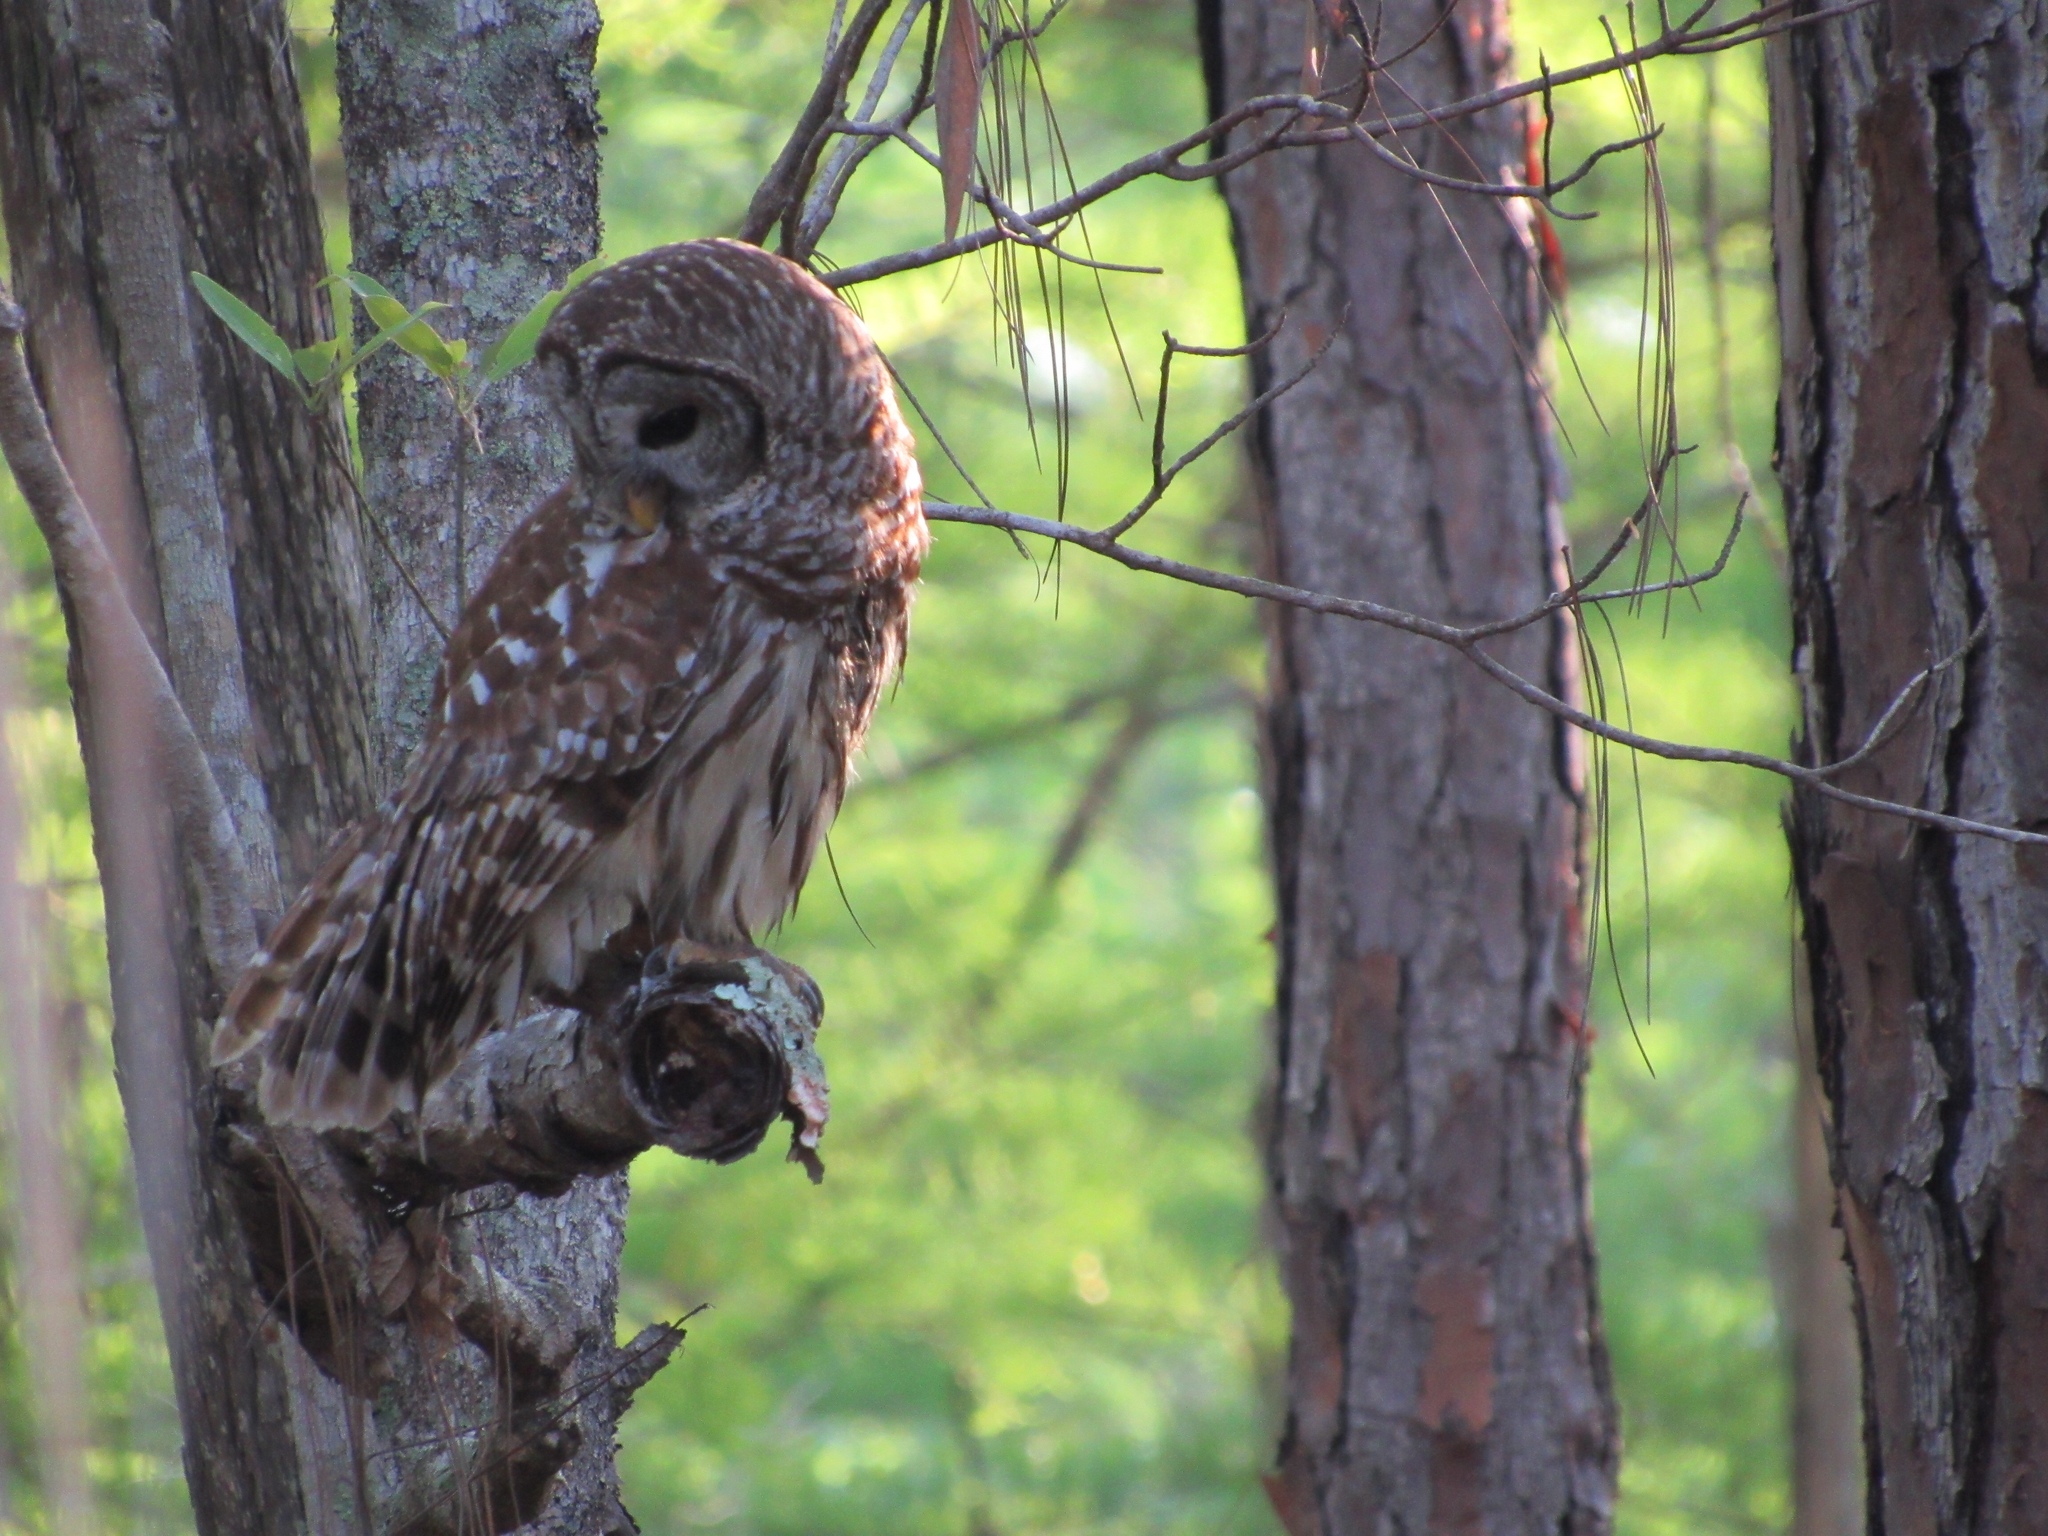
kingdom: Animalia
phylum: Chordata
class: Aves
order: Strigiformes
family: Strigidae
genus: Strix
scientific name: Strix varia
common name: Barred owl
